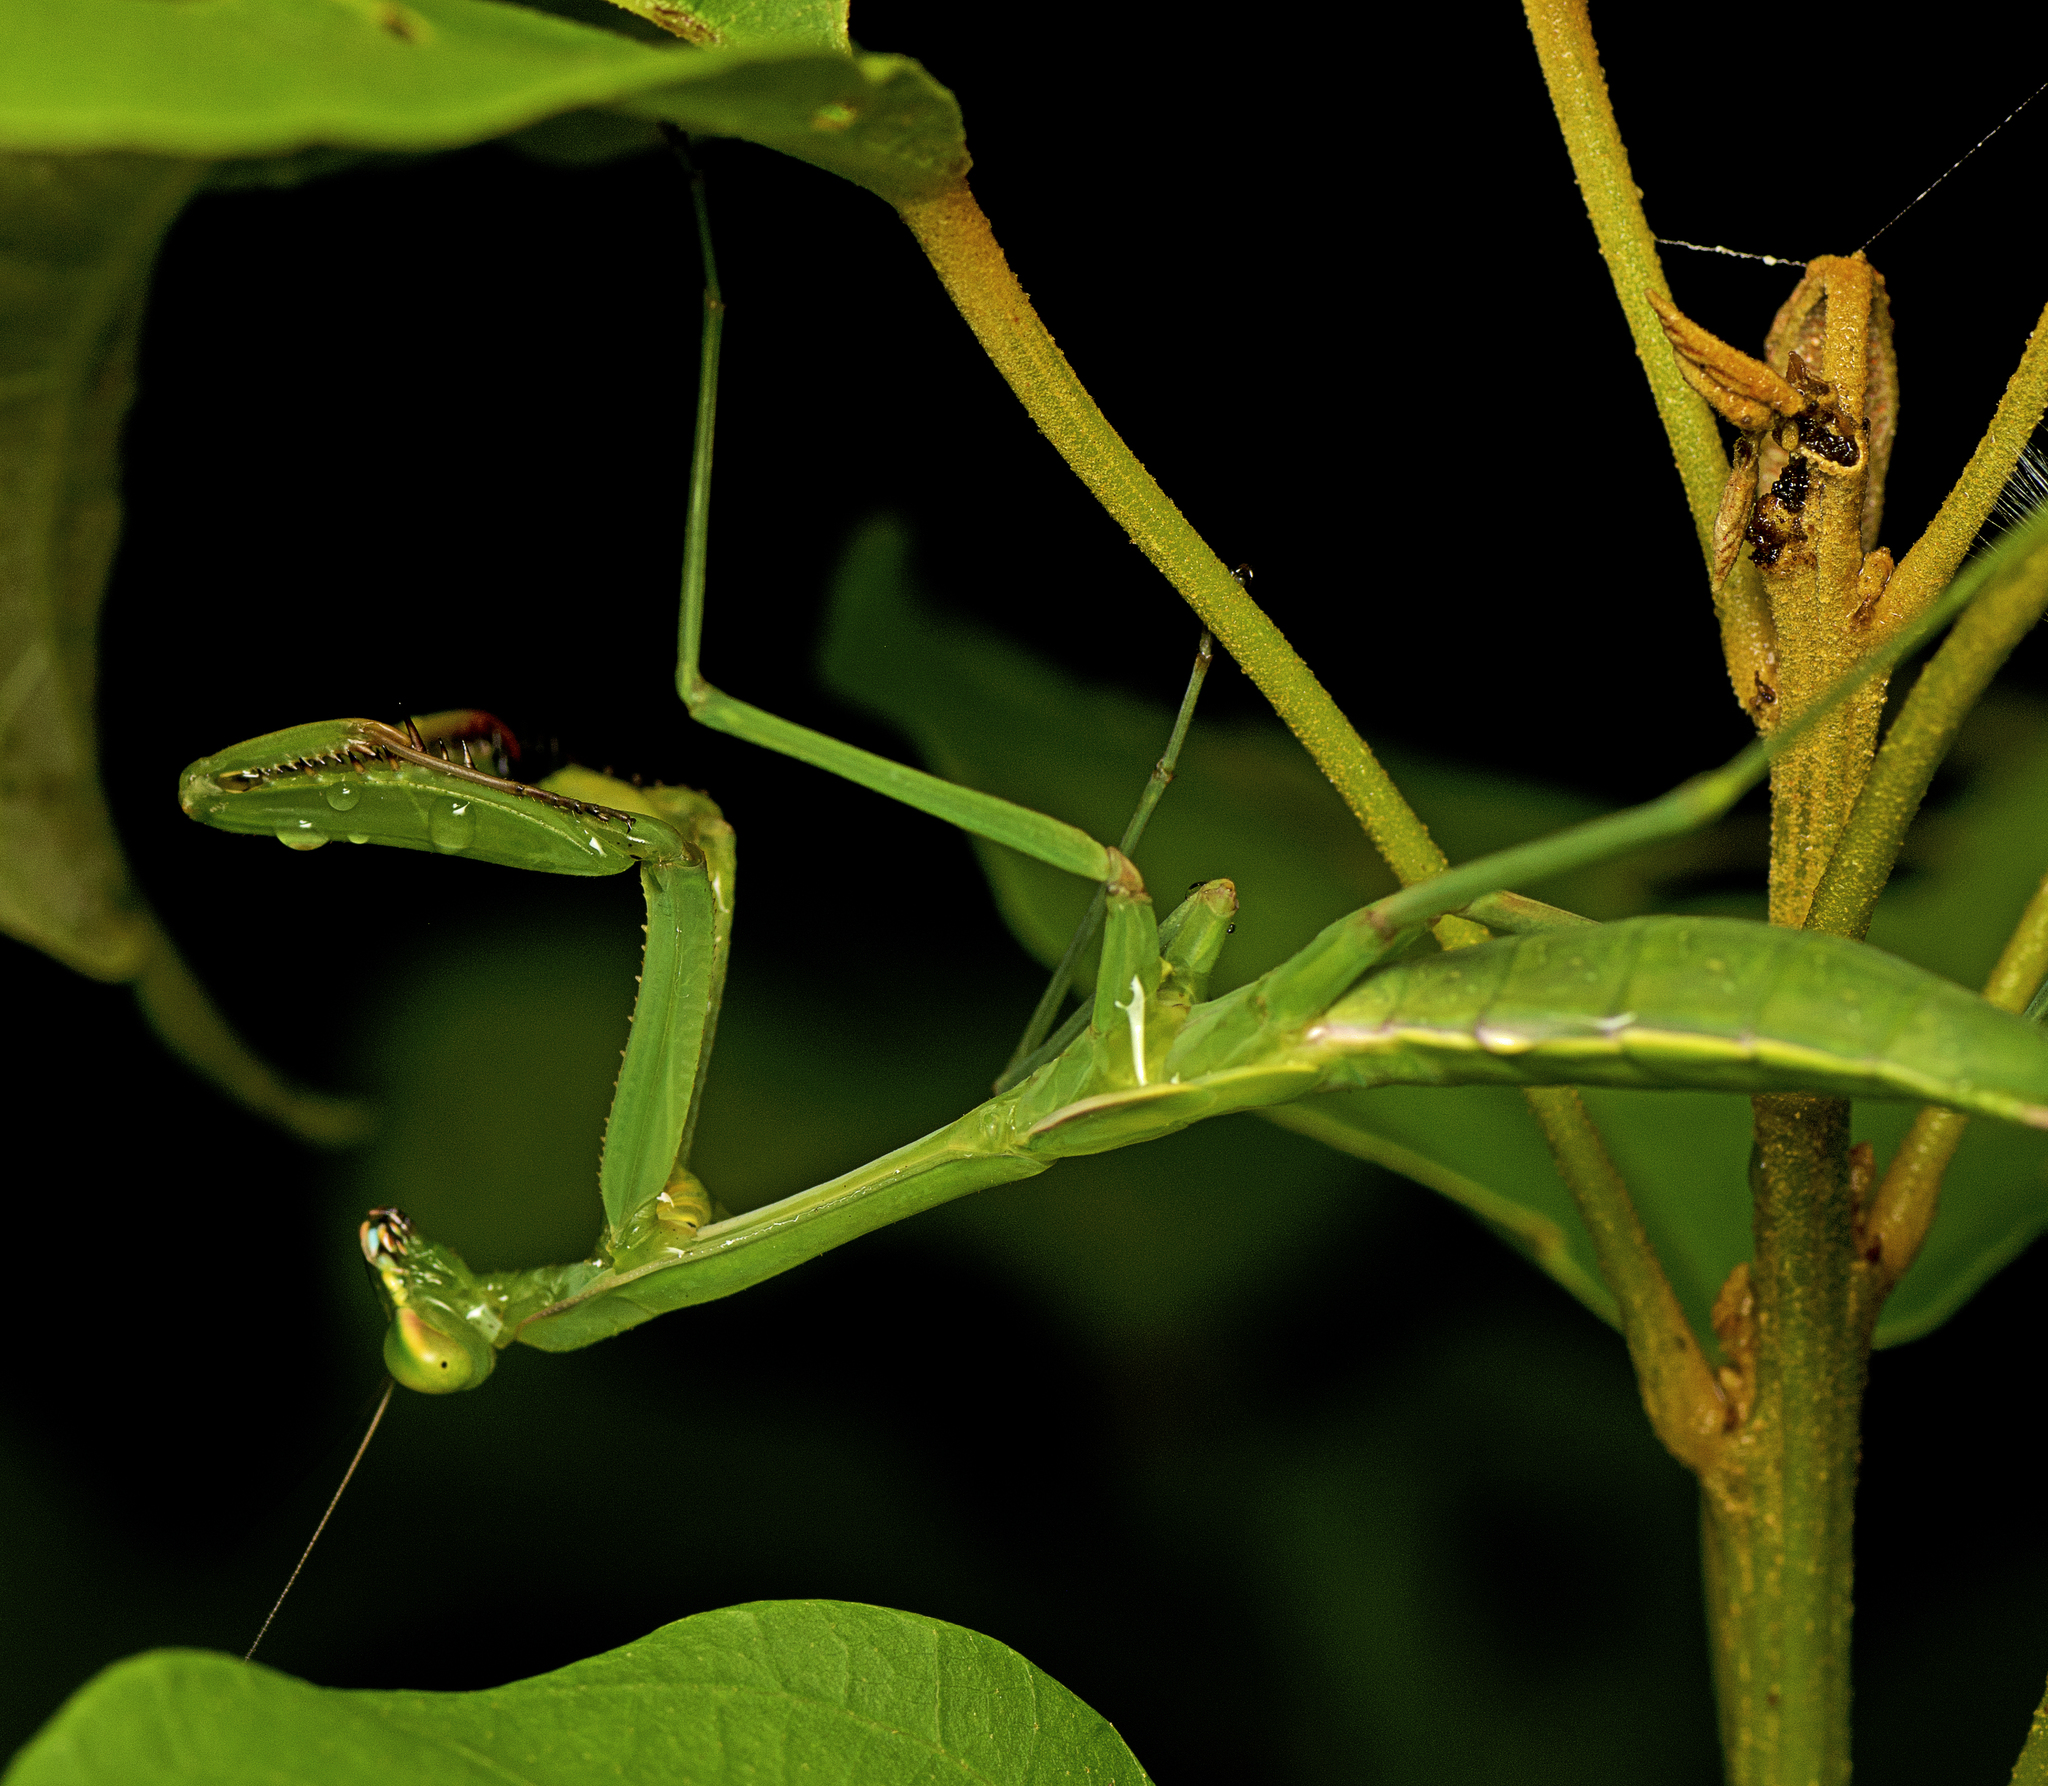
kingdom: Animalia
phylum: Arthropoda
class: Insecta
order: Mantodea
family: Mantidae
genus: Pseudomantis
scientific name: Pseudomantis albofimbriata
